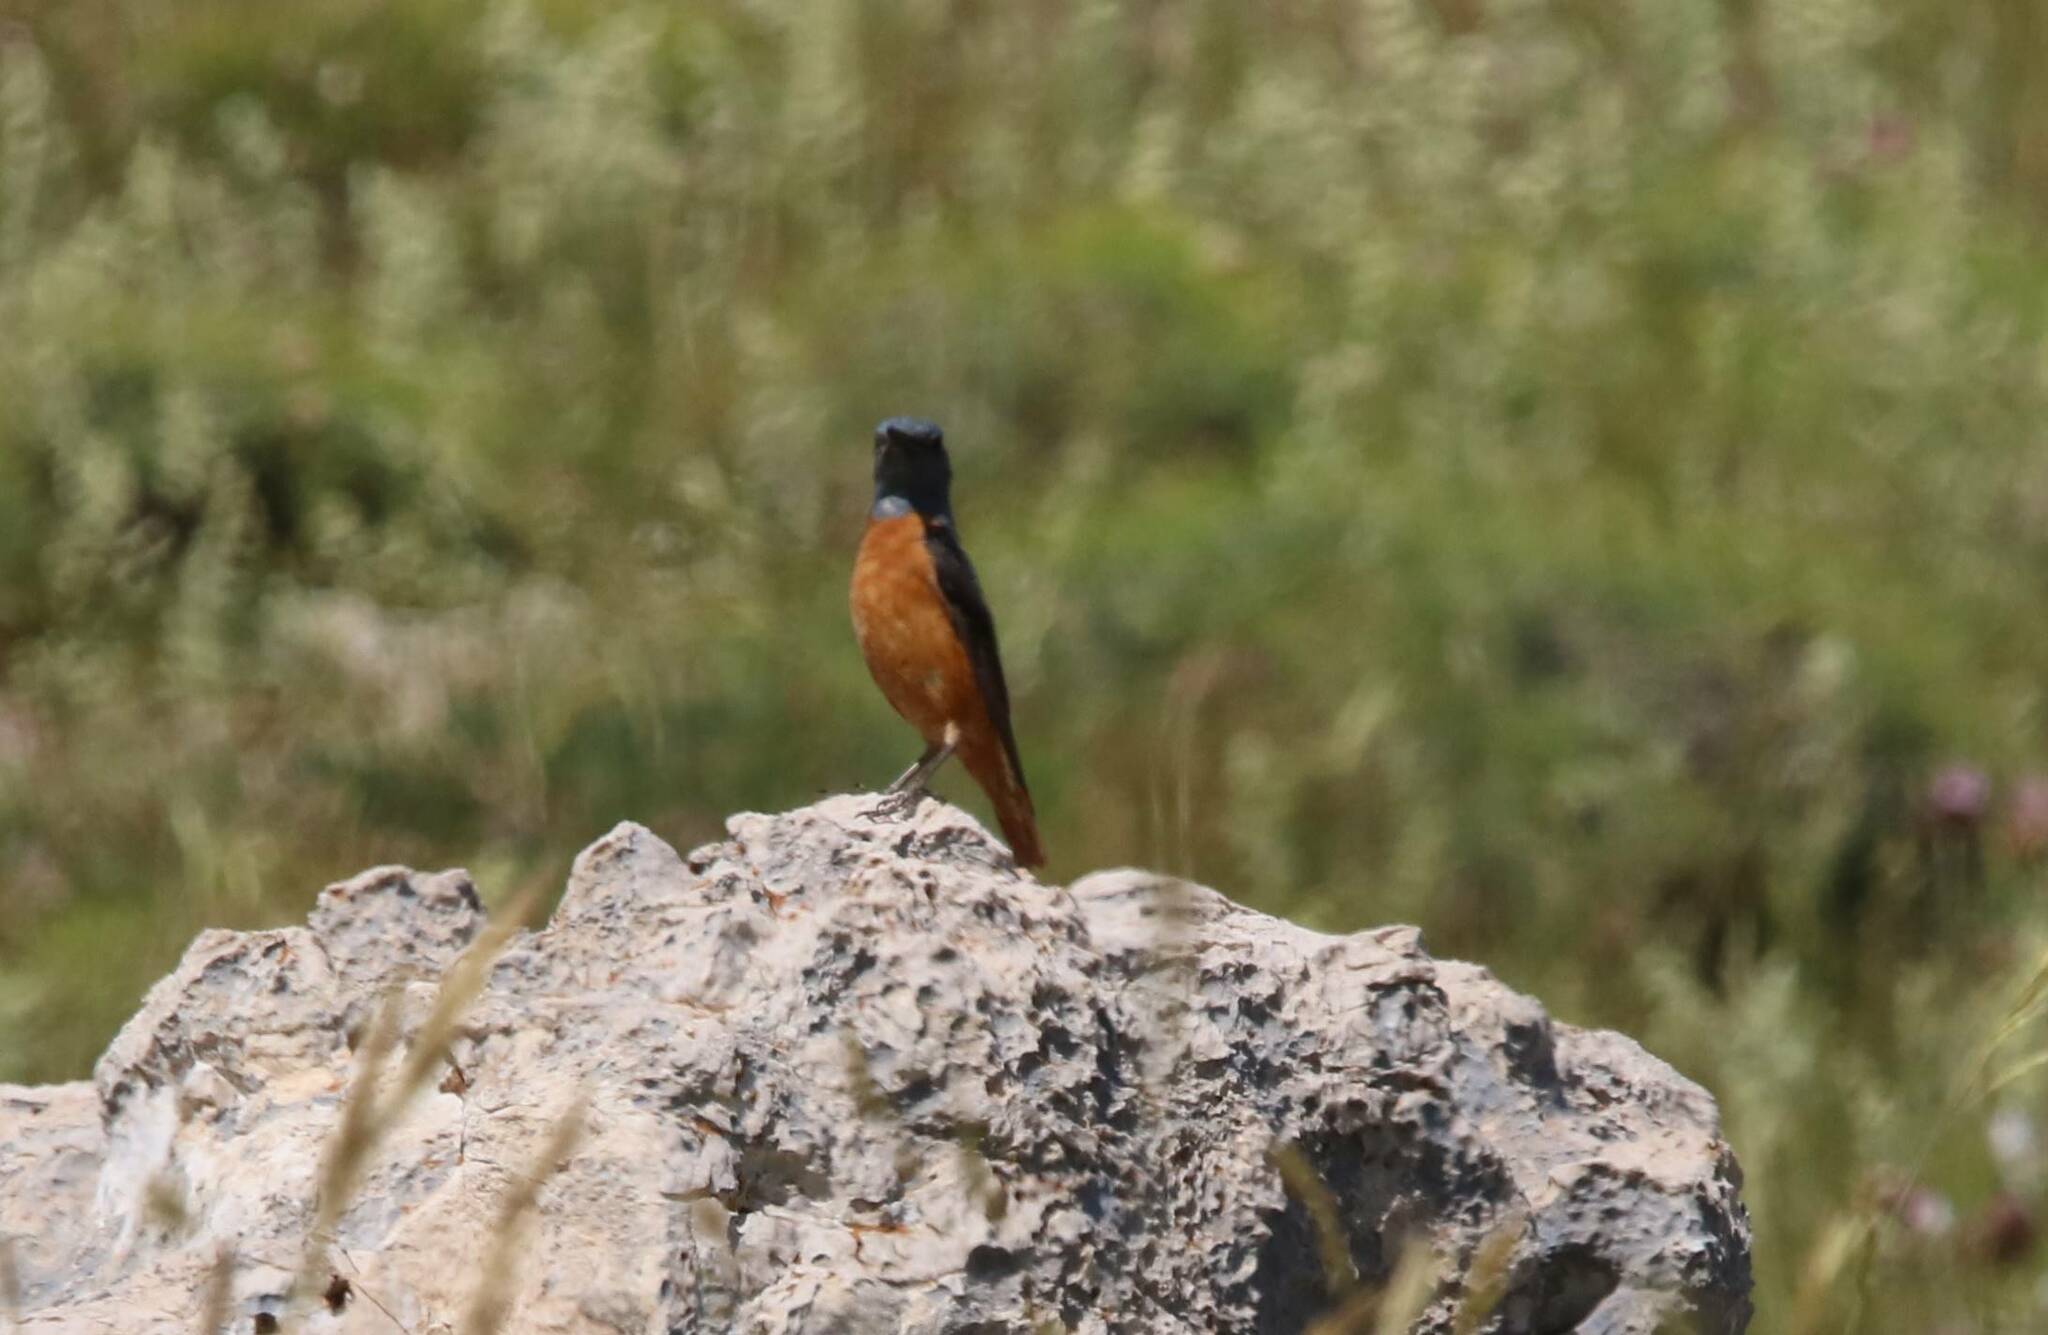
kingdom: Animalia
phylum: Chordata
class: Aves
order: Passeriformes
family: Muscicapidae
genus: Monticola
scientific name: Monticola saxatilis
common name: Rufous-tailed rock thrush
